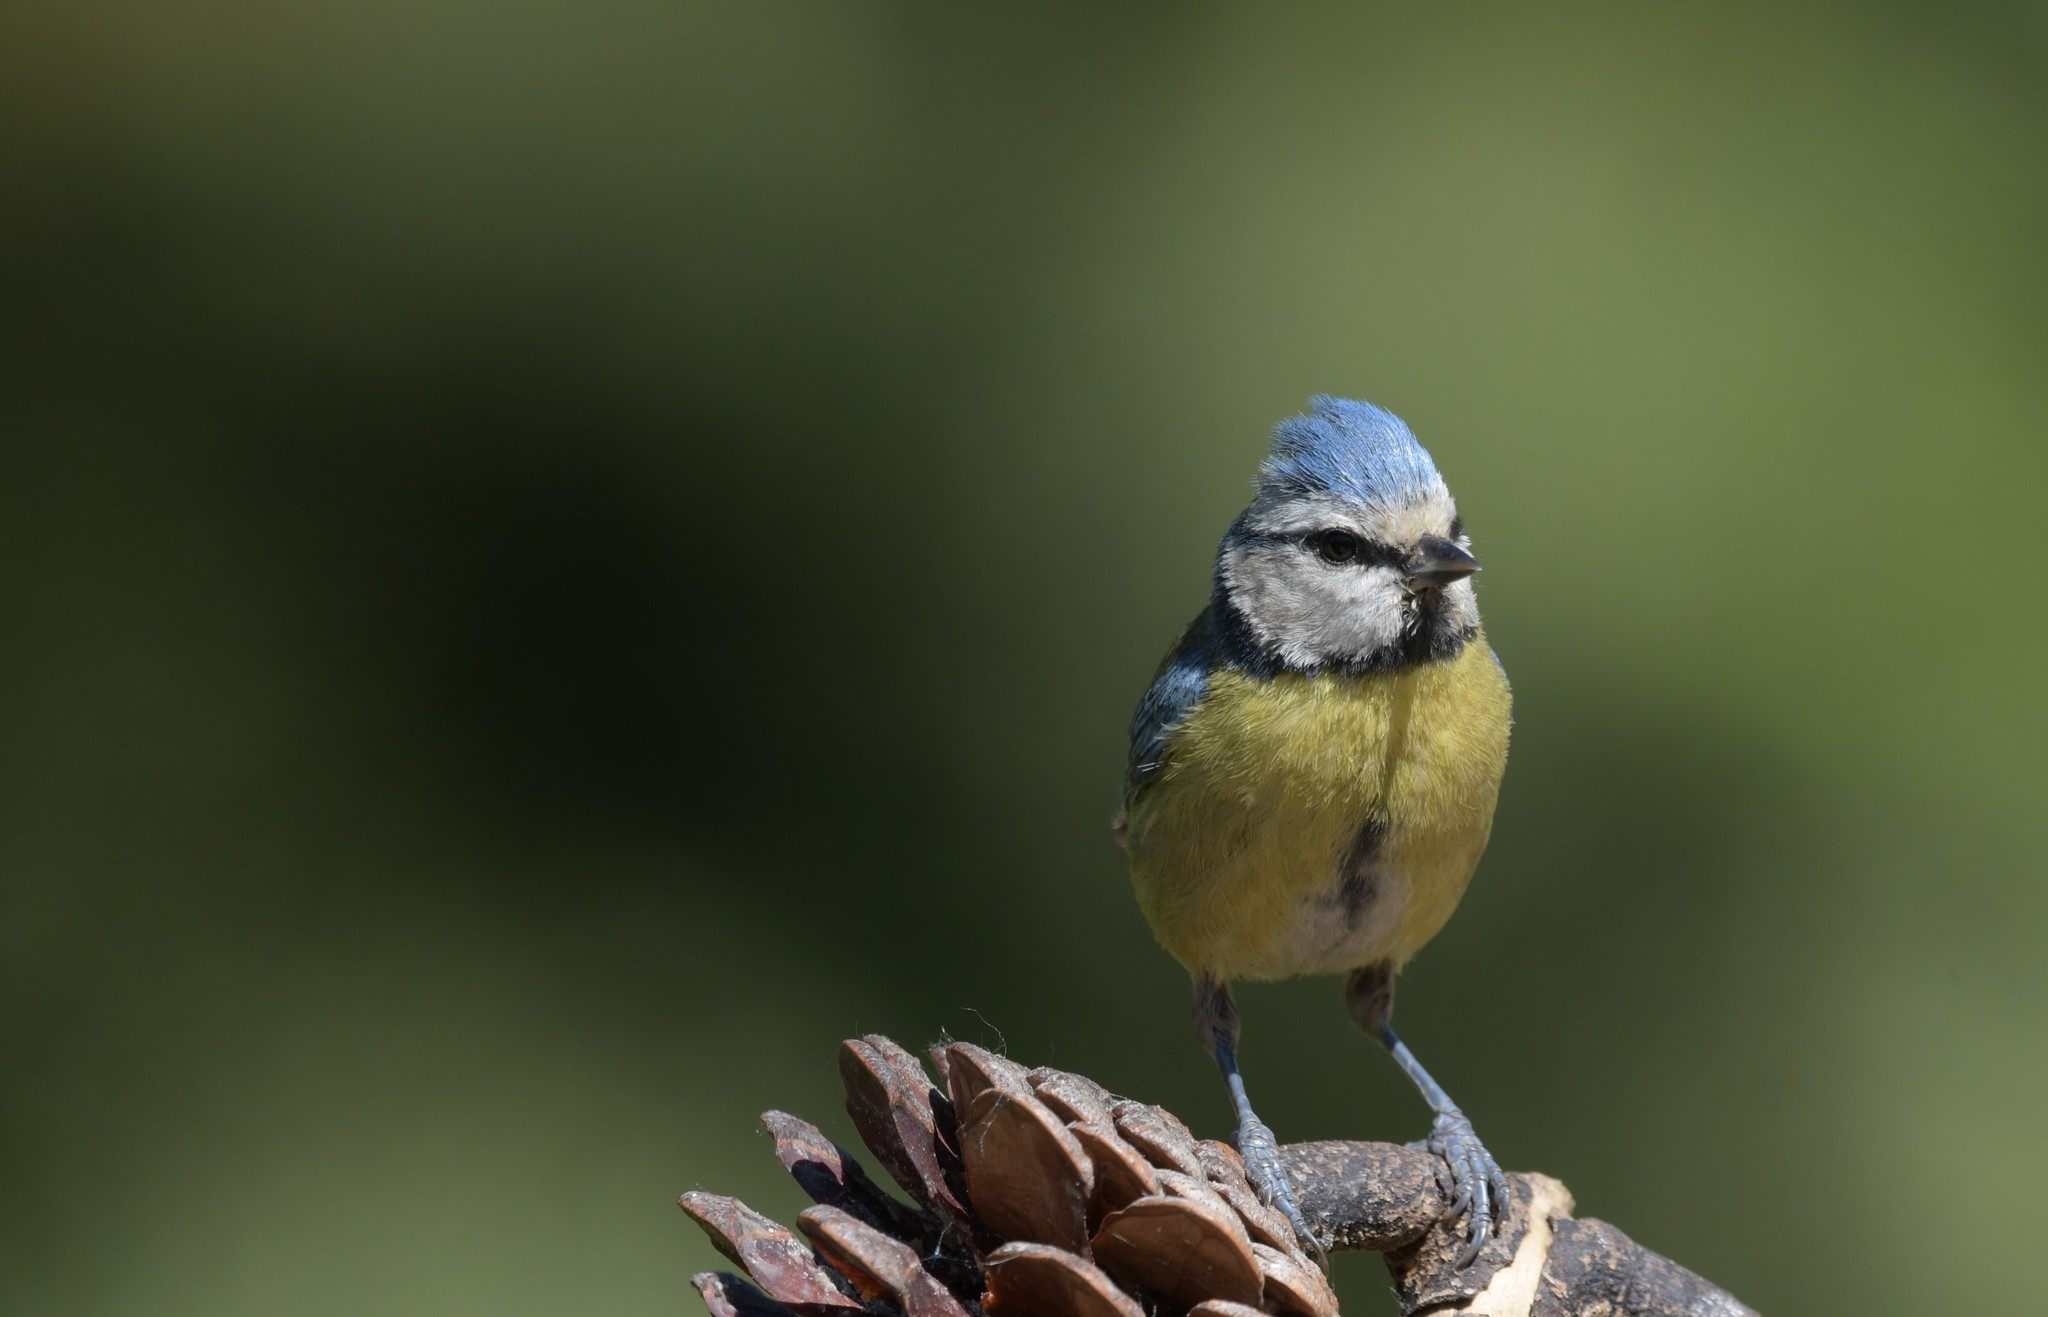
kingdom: Animalia
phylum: Chordata
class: Aves
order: Passeriformes
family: Paridae
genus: Cyanistes
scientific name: Cyanistes caeruleus
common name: Eurasian blue tit
